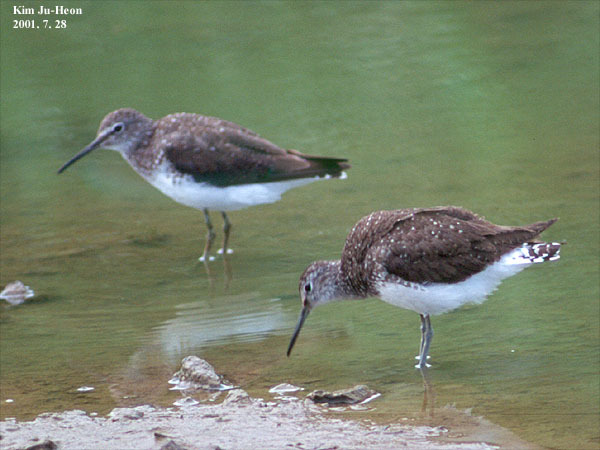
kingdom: Animalia
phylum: Chordata
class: Aves
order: Charadriiformes
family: Scolopacidae
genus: Tringa
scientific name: Tringa ochropus
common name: Green sandpiper
